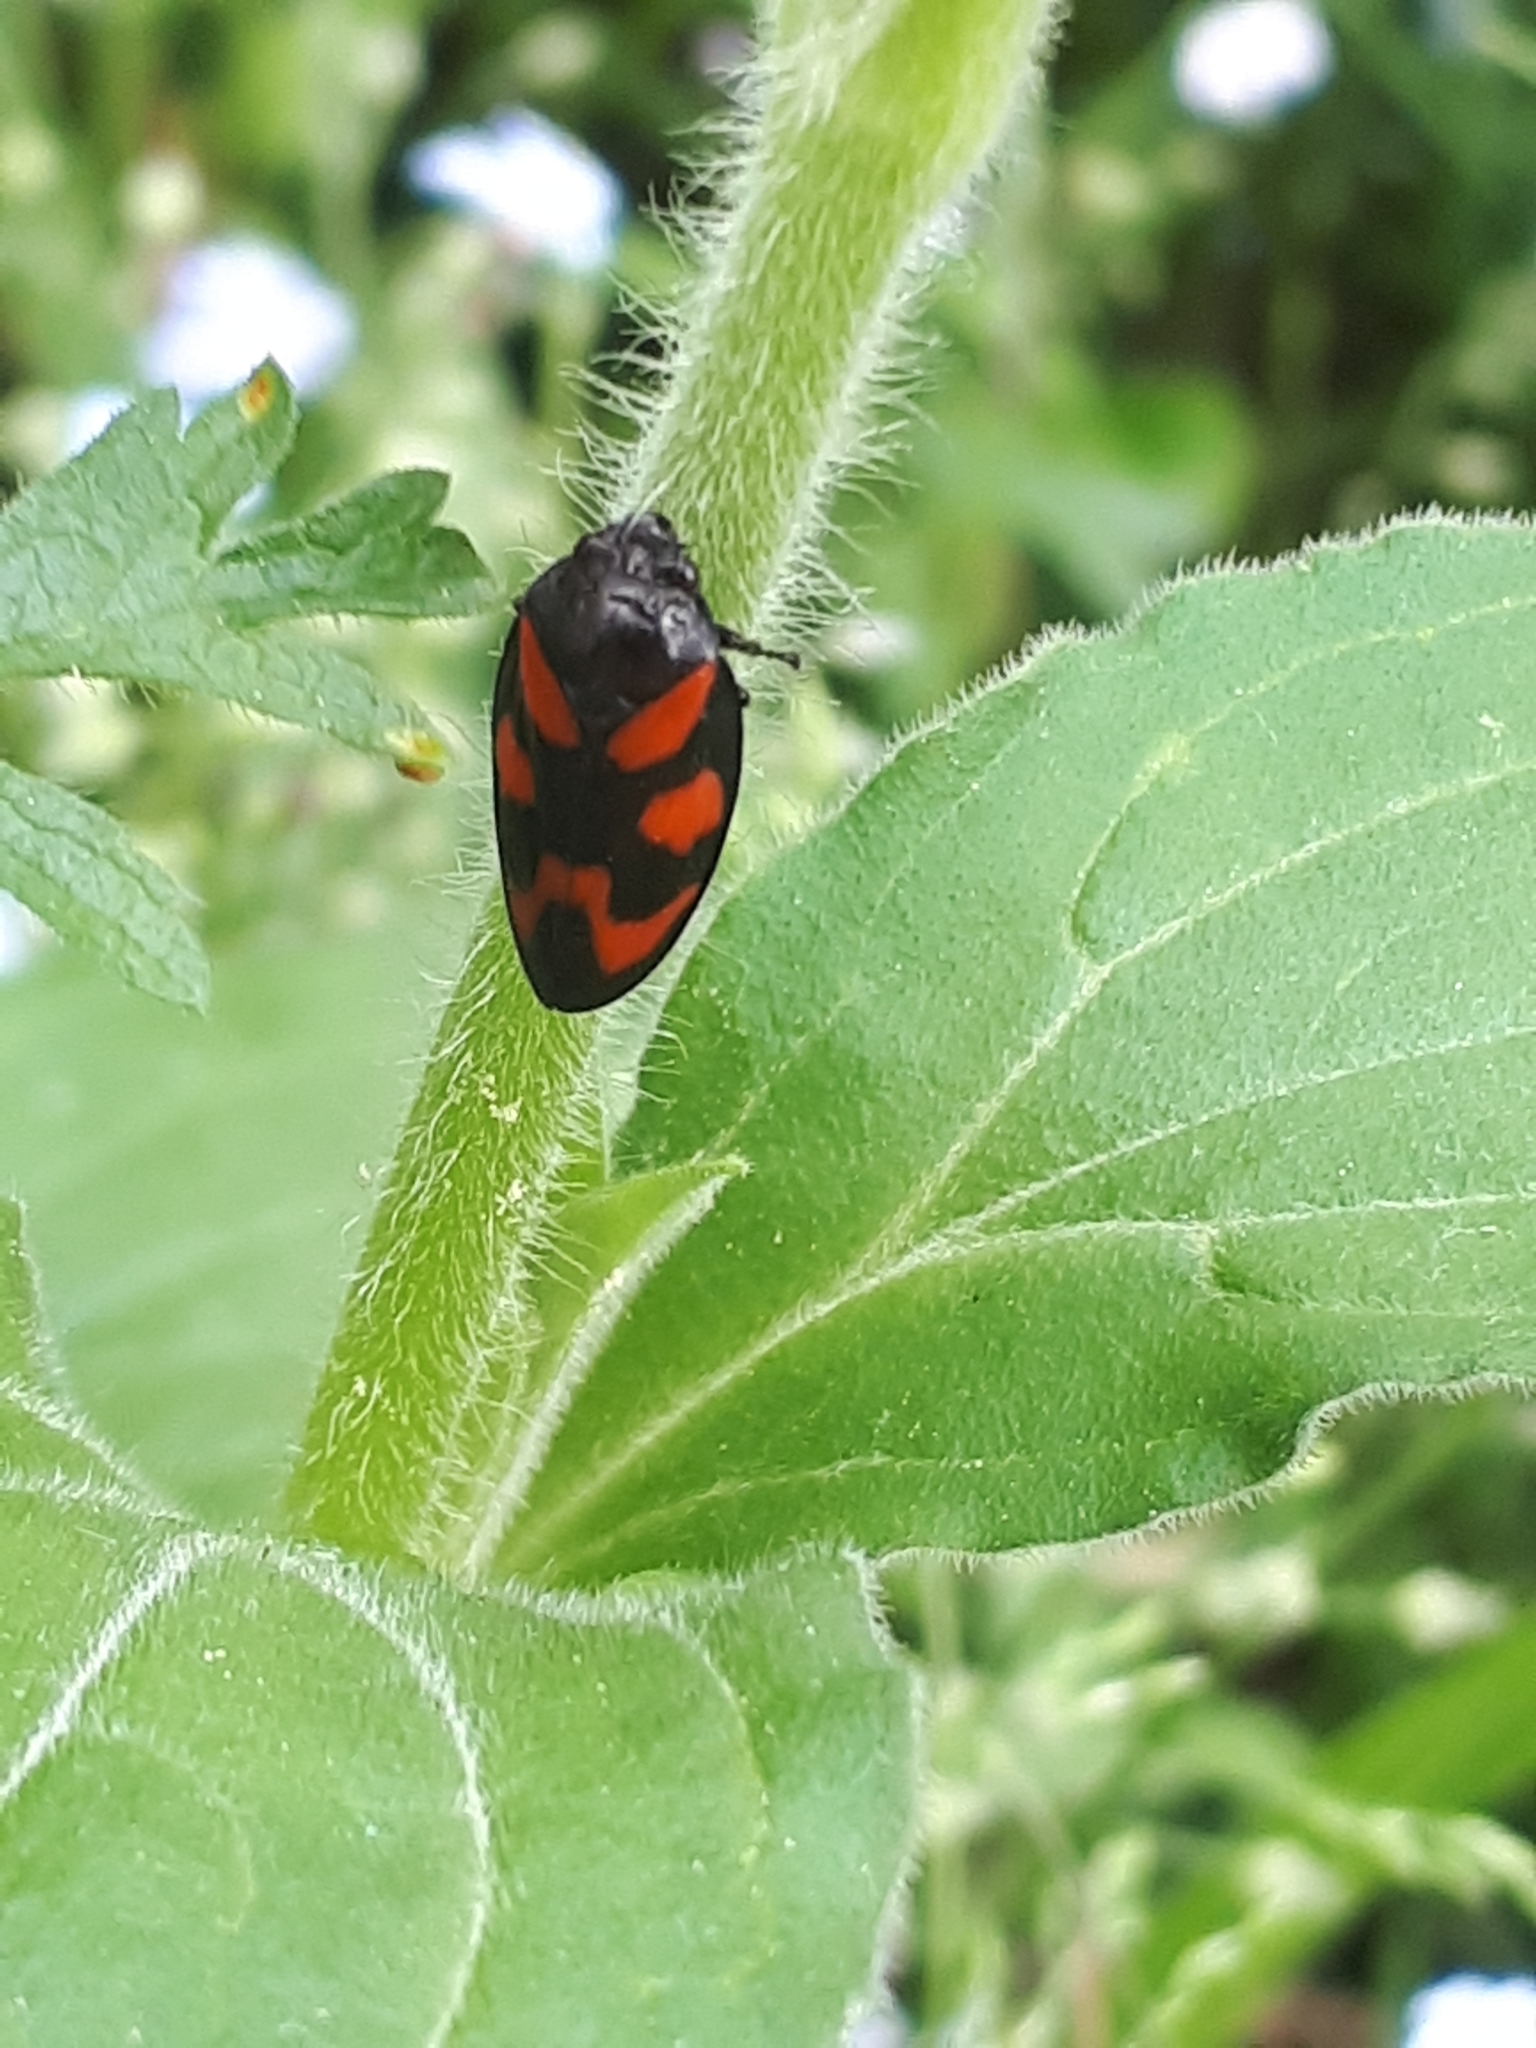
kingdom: Animalia
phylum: Arthropoda
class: Insecta
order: Hemiptera
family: Cercopidae
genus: Cercopis
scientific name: Cercopis vulnerata
